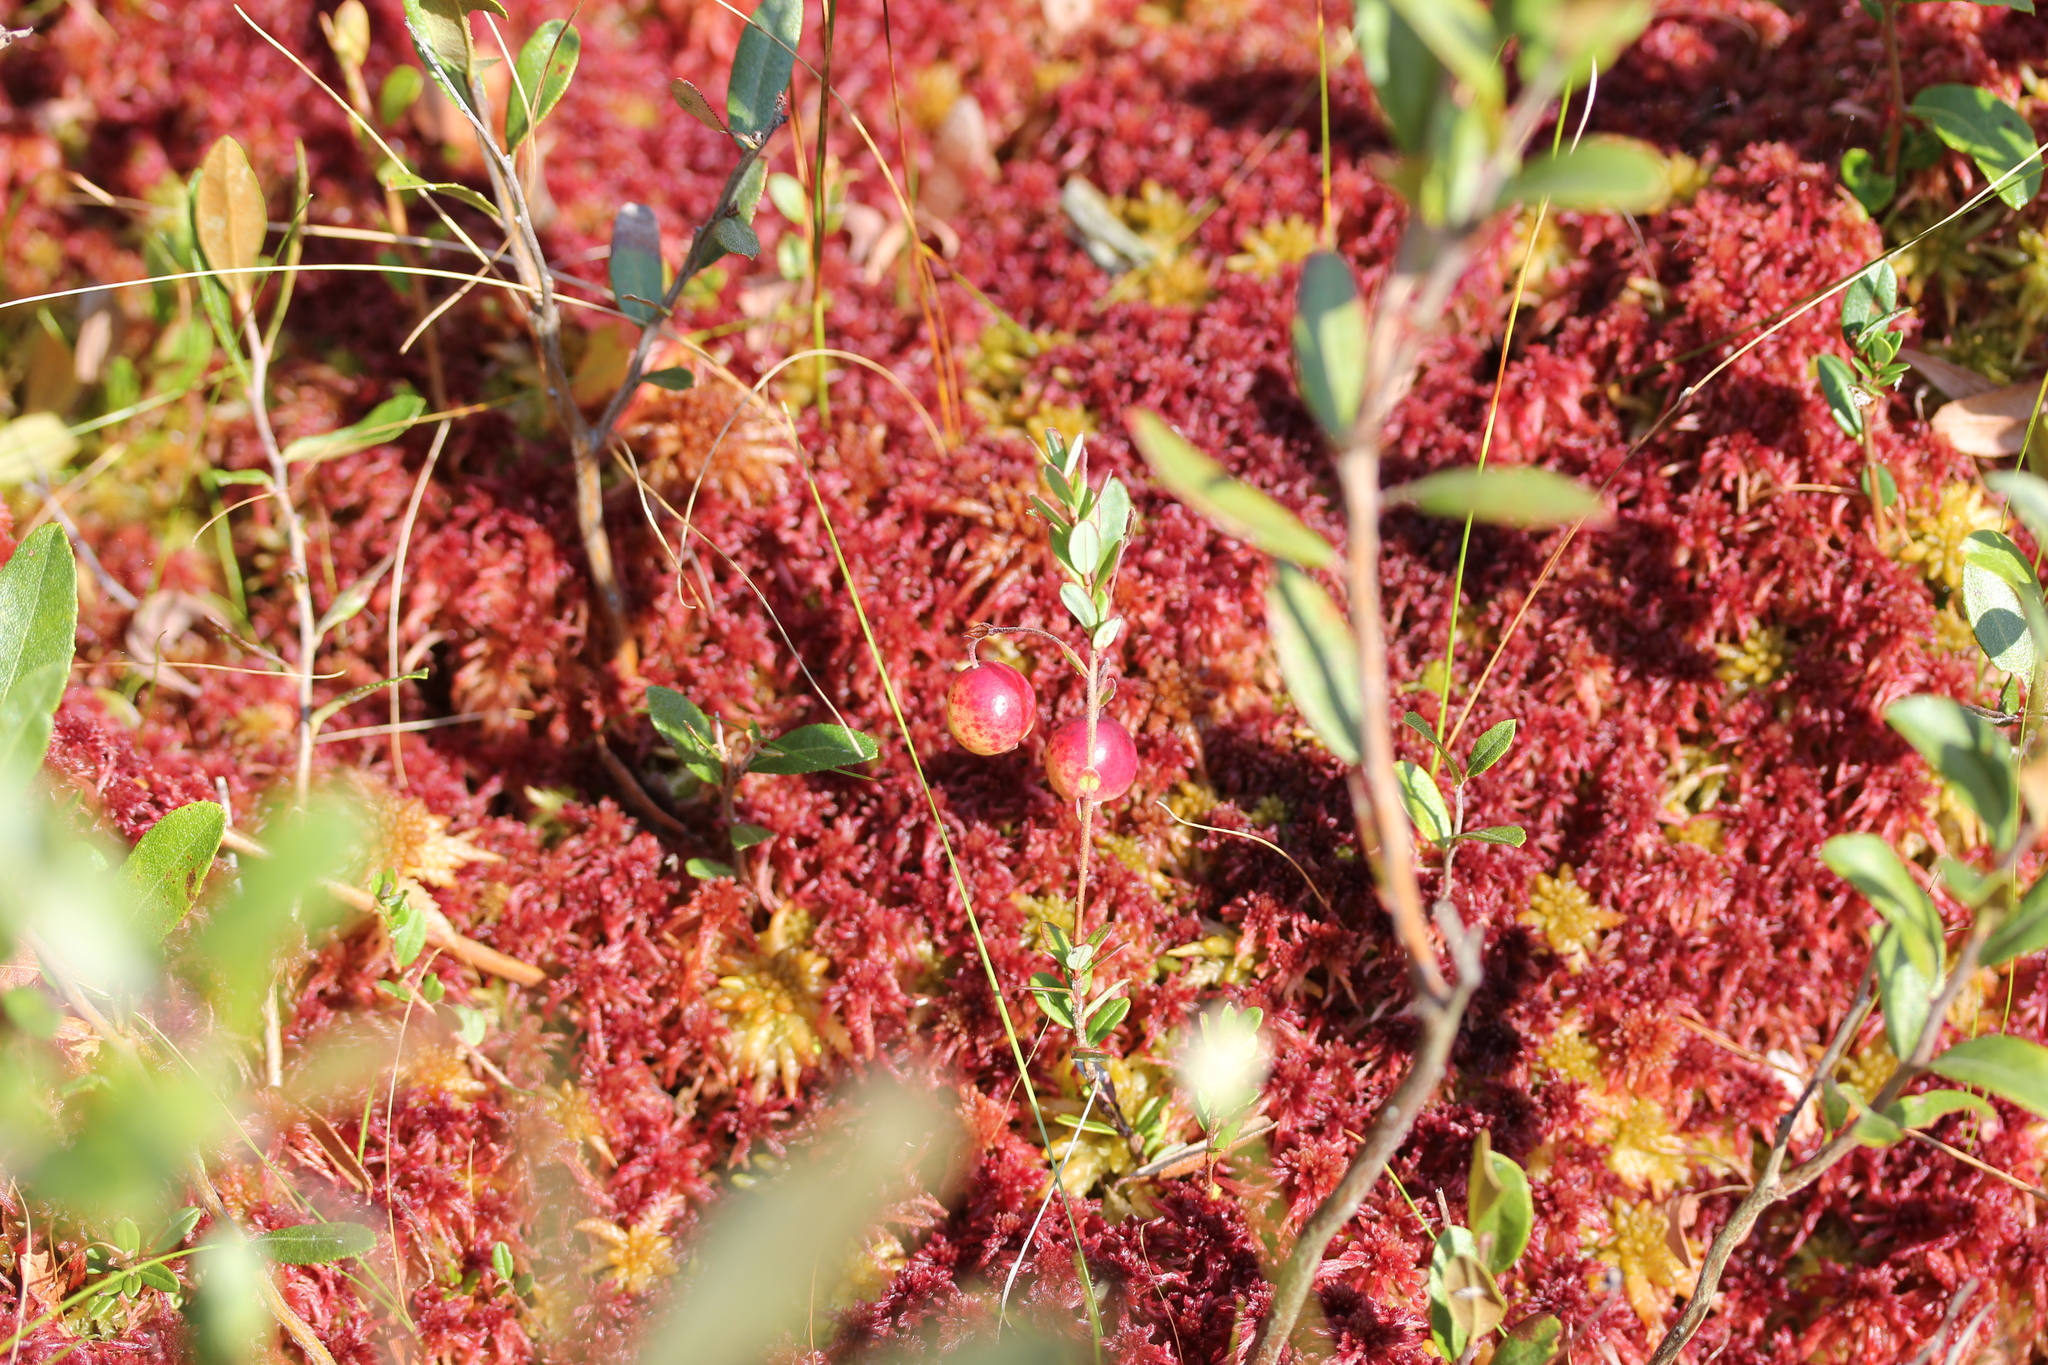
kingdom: Plantae
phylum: Tracheophyta
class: Magnoliopsida
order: Ericales
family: Ericaceae
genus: Vaccinium
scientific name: Vaccinium macrocarpon
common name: American cranberry
